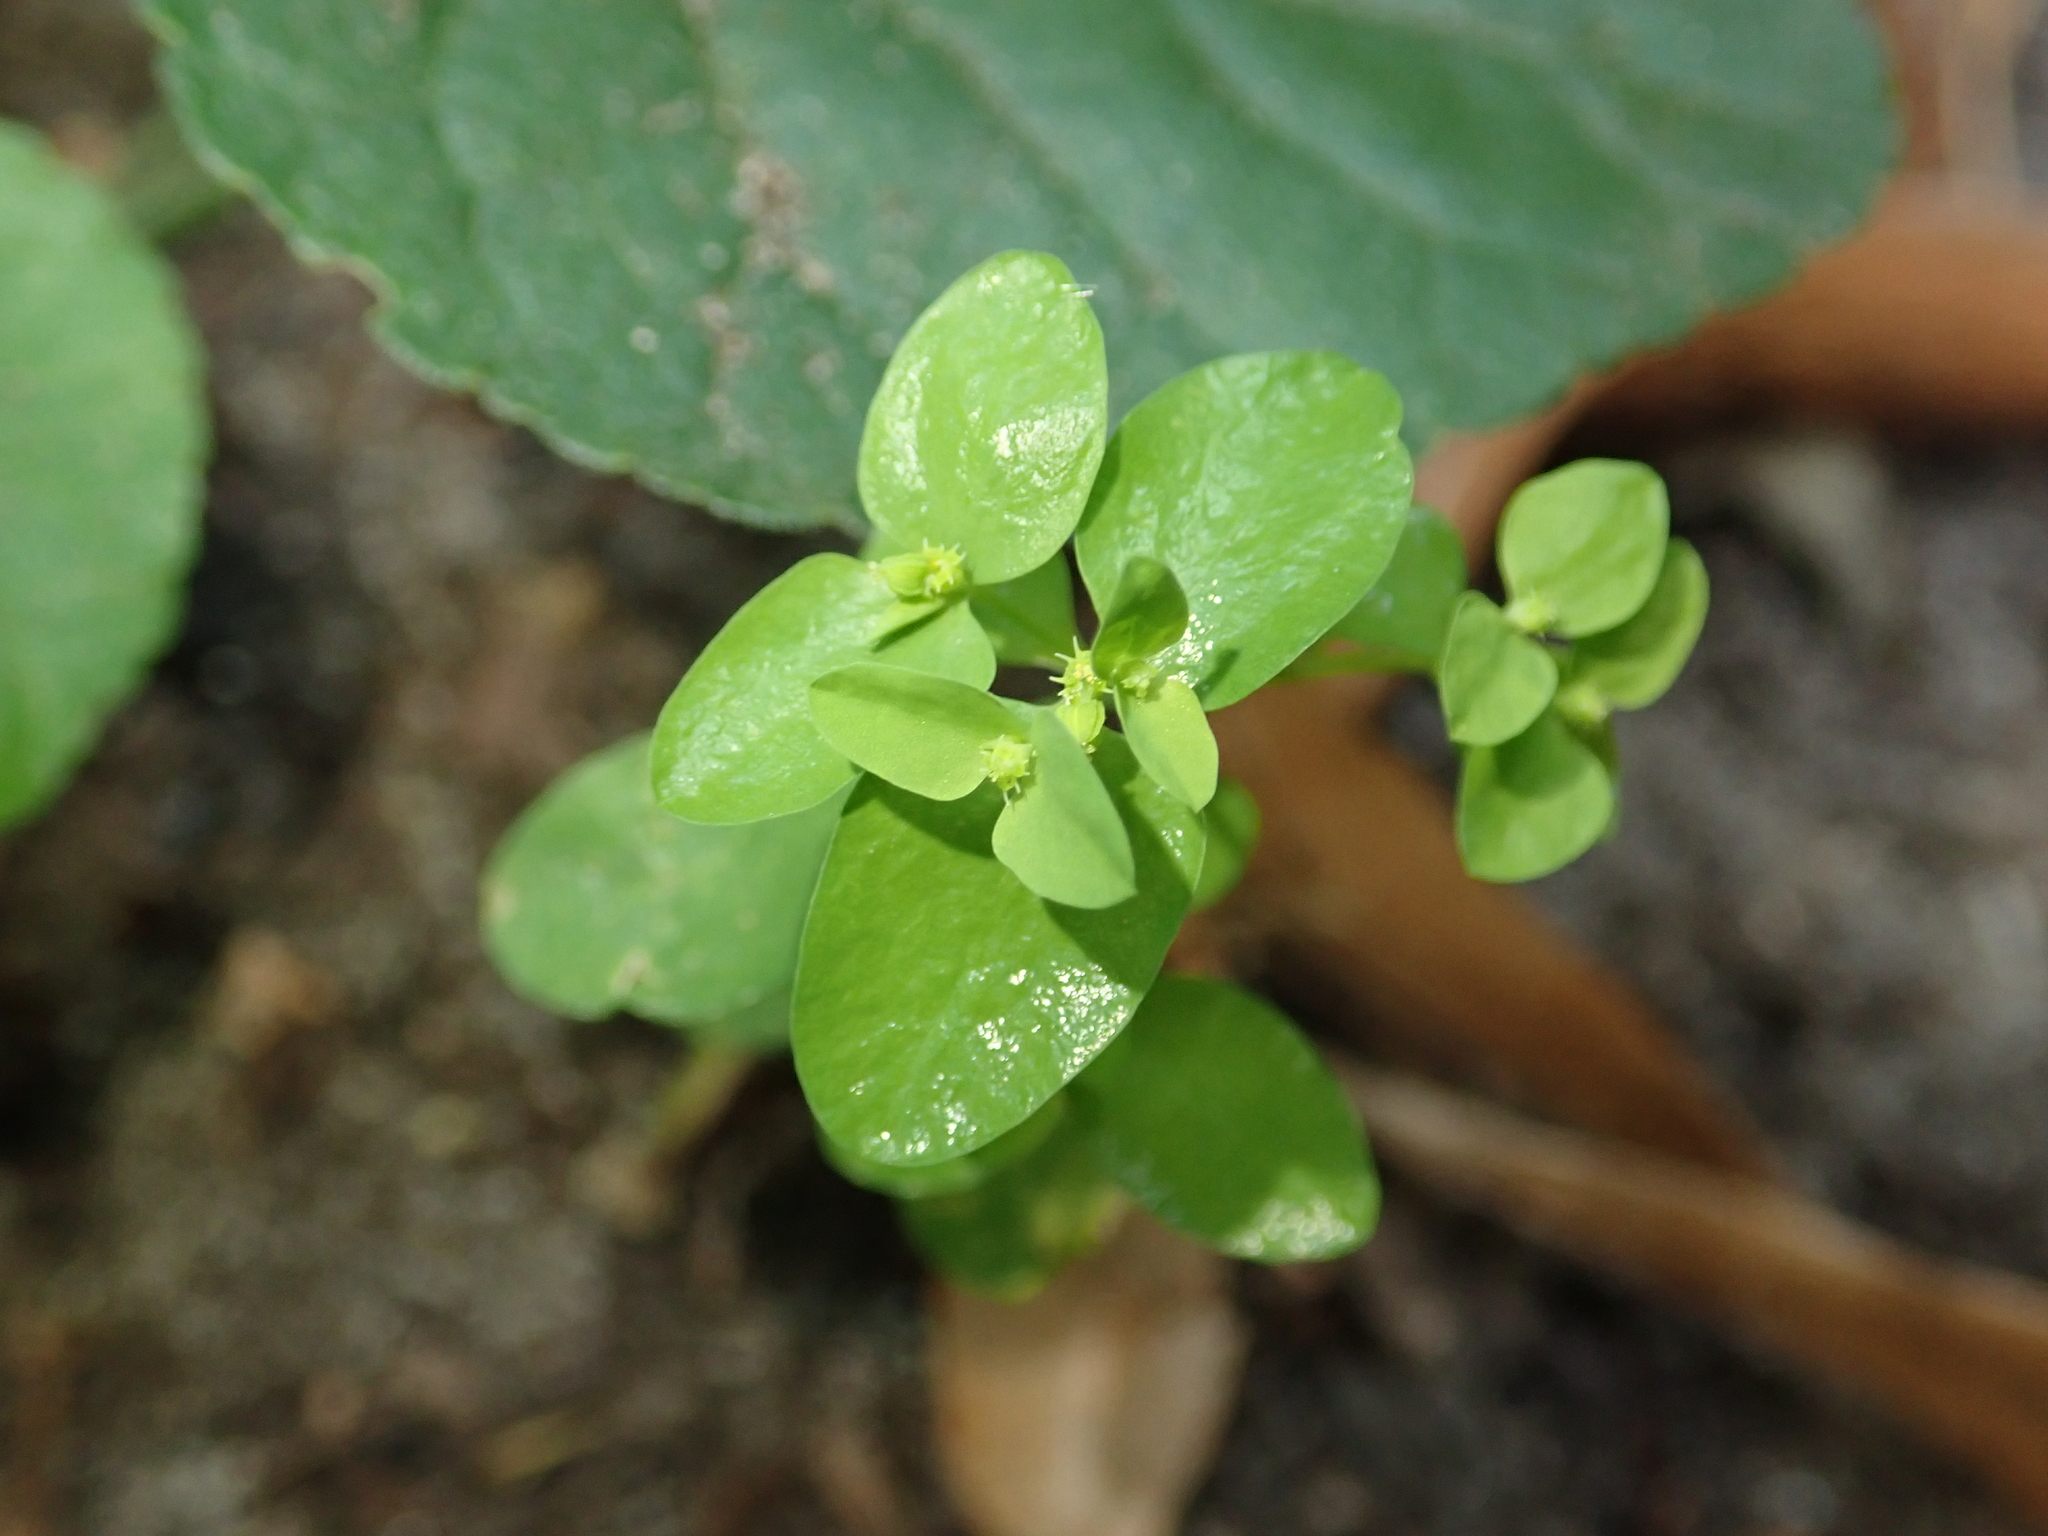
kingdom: Plantae
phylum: Tracheophyta
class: Magnoliopsida
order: Malpighiales
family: Euphorbiaceae
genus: Euphorbia
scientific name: Euphorbia peplus
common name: Petty spurge
